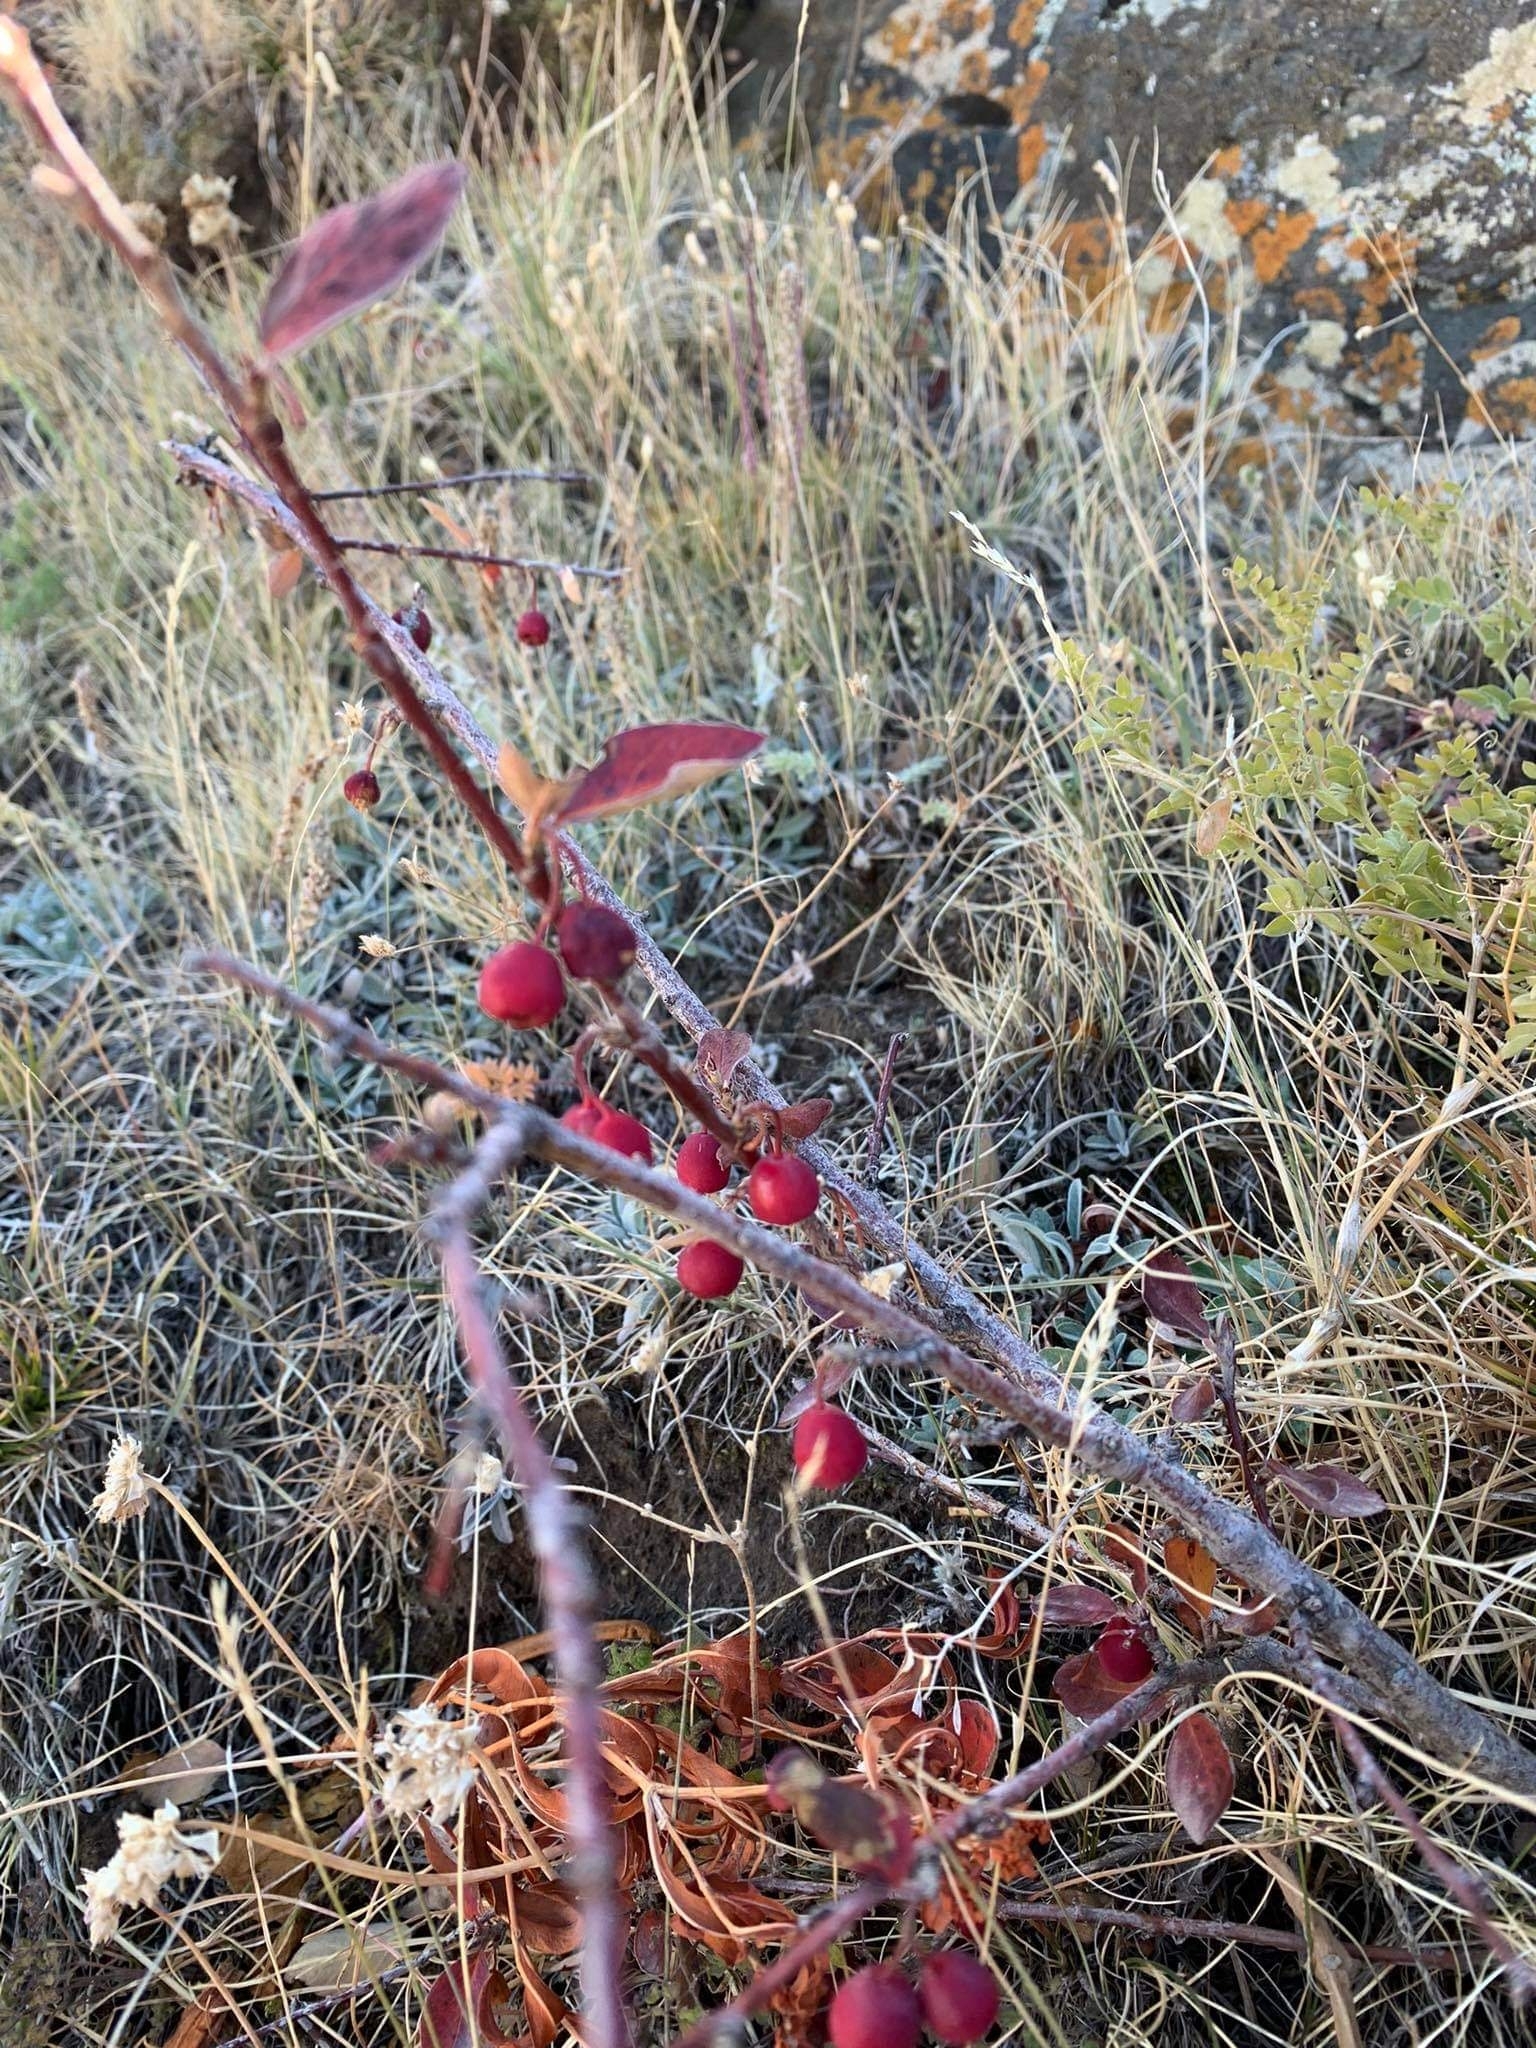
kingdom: Plantae
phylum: Tracheophyta
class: Magnoliopsida
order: Rosales
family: Rosaceae
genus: Cotoneaster
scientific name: Cotoneaster melanocarpus
